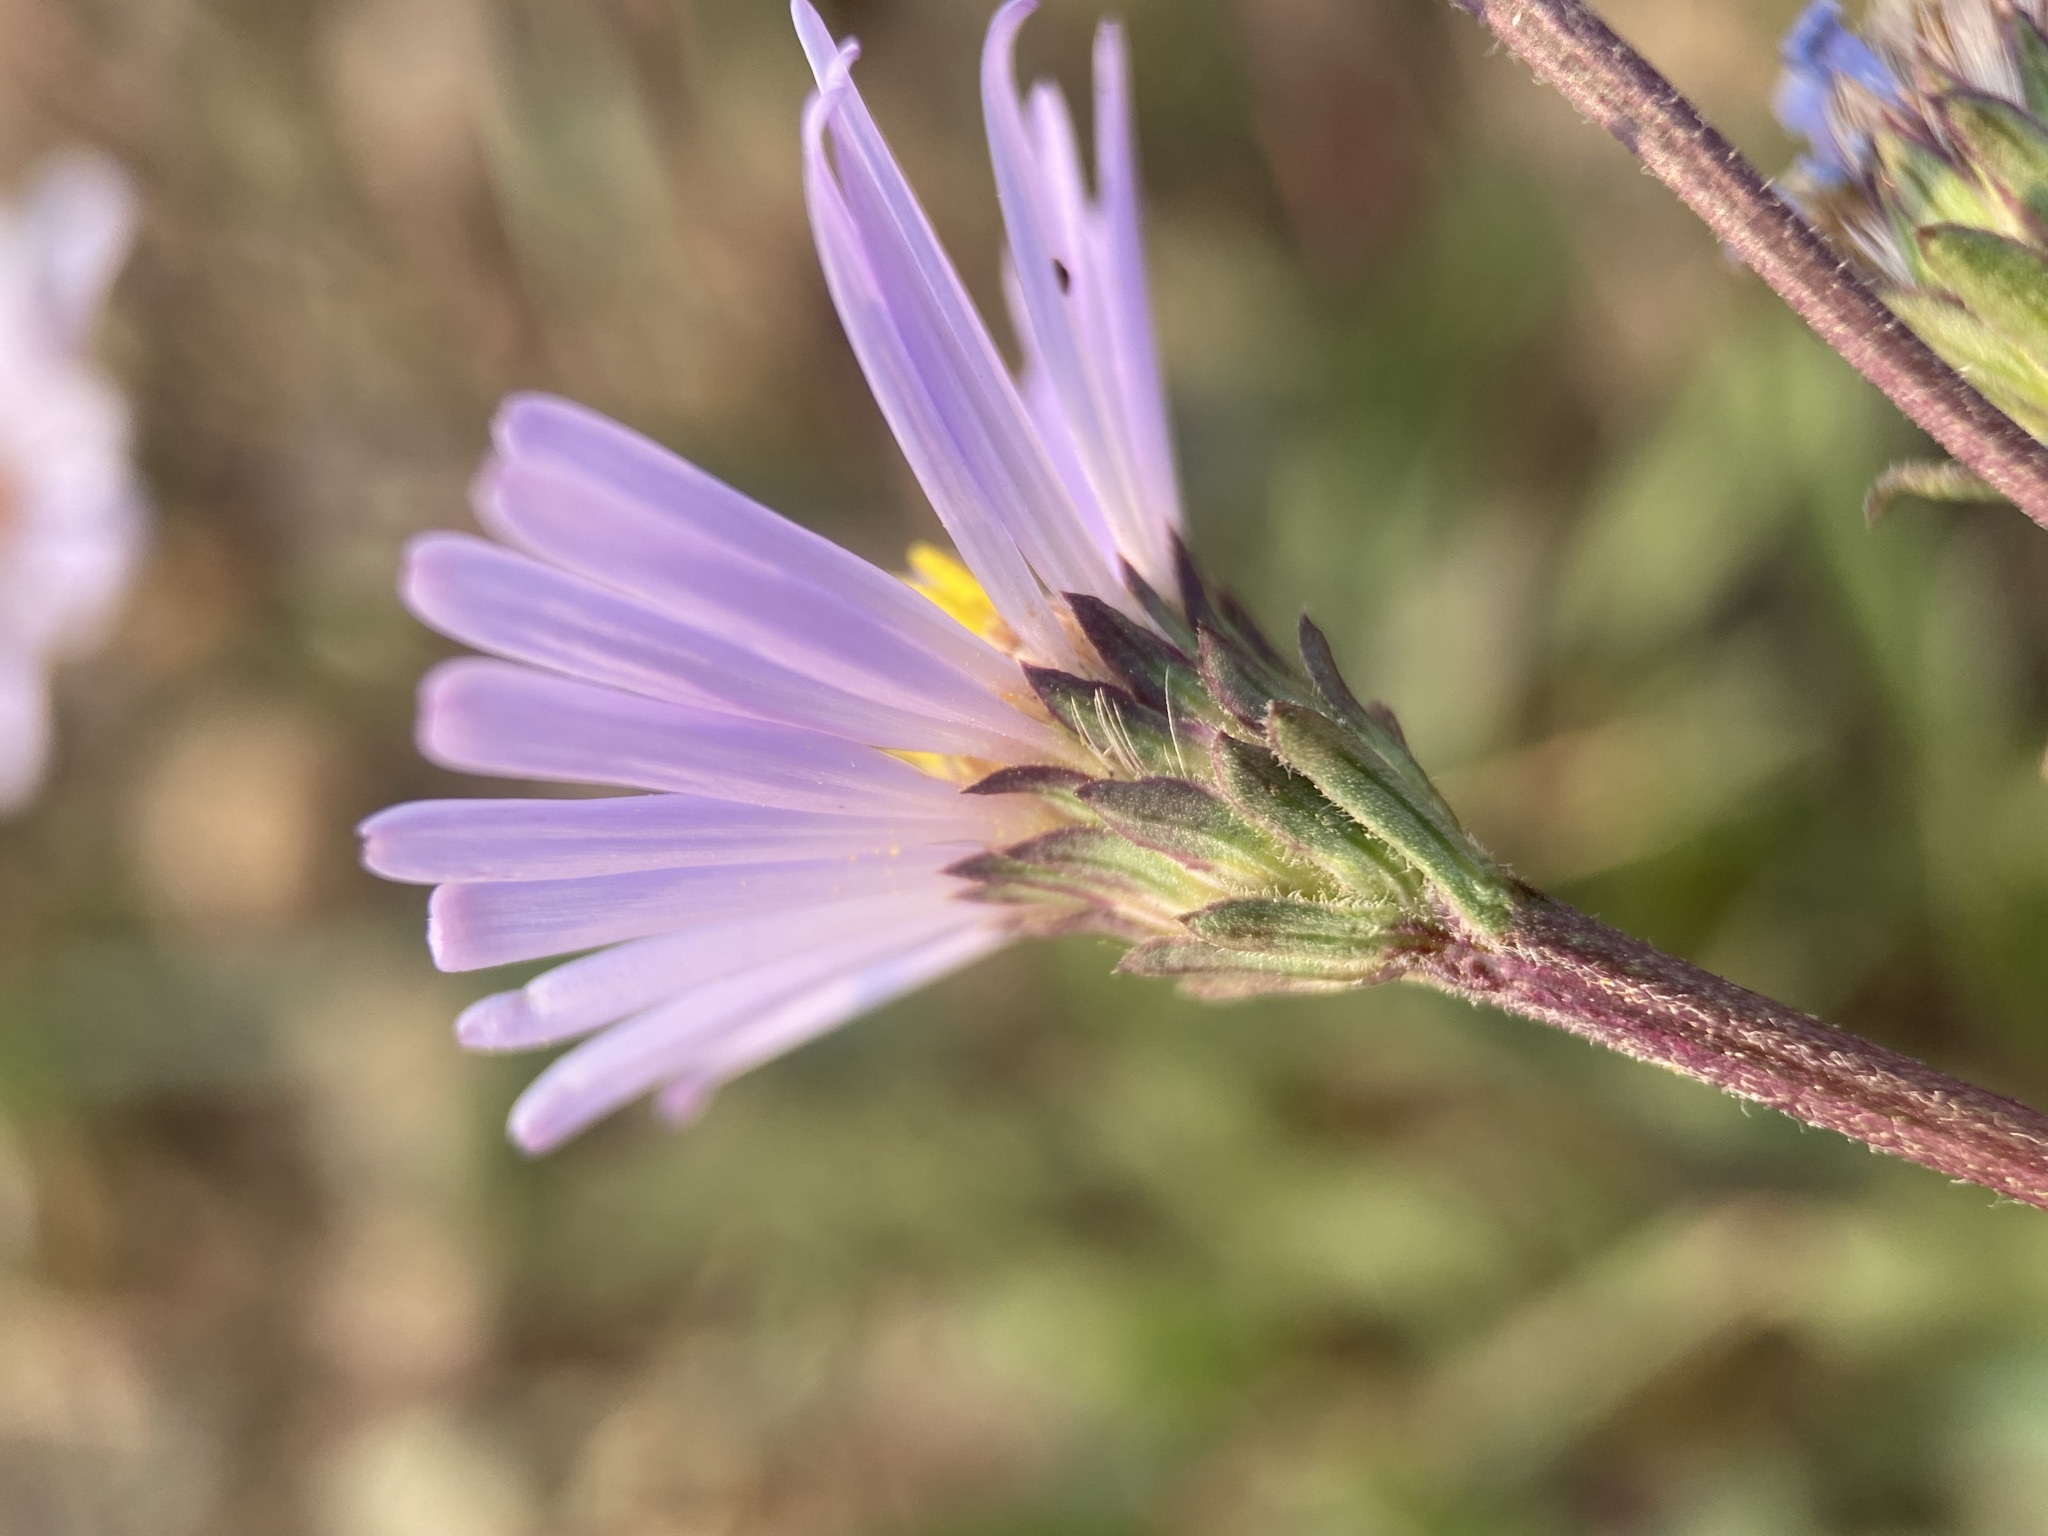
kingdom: Plantae
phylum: Tracheophyta
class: Magnoliopsida
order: Asterales
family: Asteraceae
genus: Symphyotrichum
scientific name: Symphyotrichum spathulatum
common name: Western mountain aster
